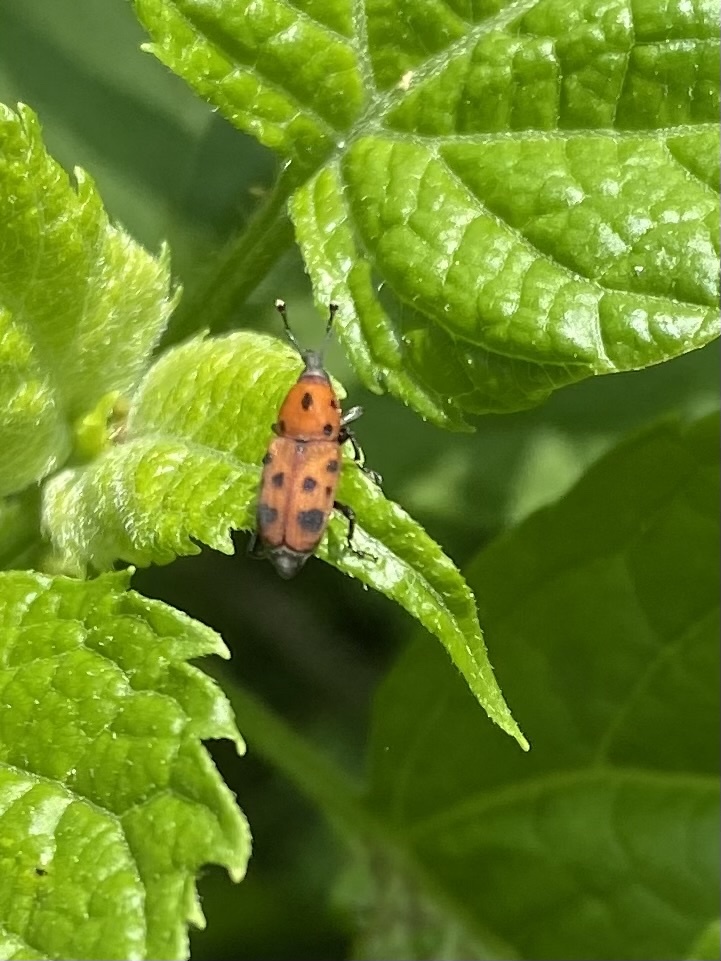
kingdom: Animalia
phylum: Arthropoda
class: Insecta
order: Coleoptera
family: Dryophthoridae
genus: Rhodobaenus
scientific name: Rhodobaenus tredecimpunctatus
